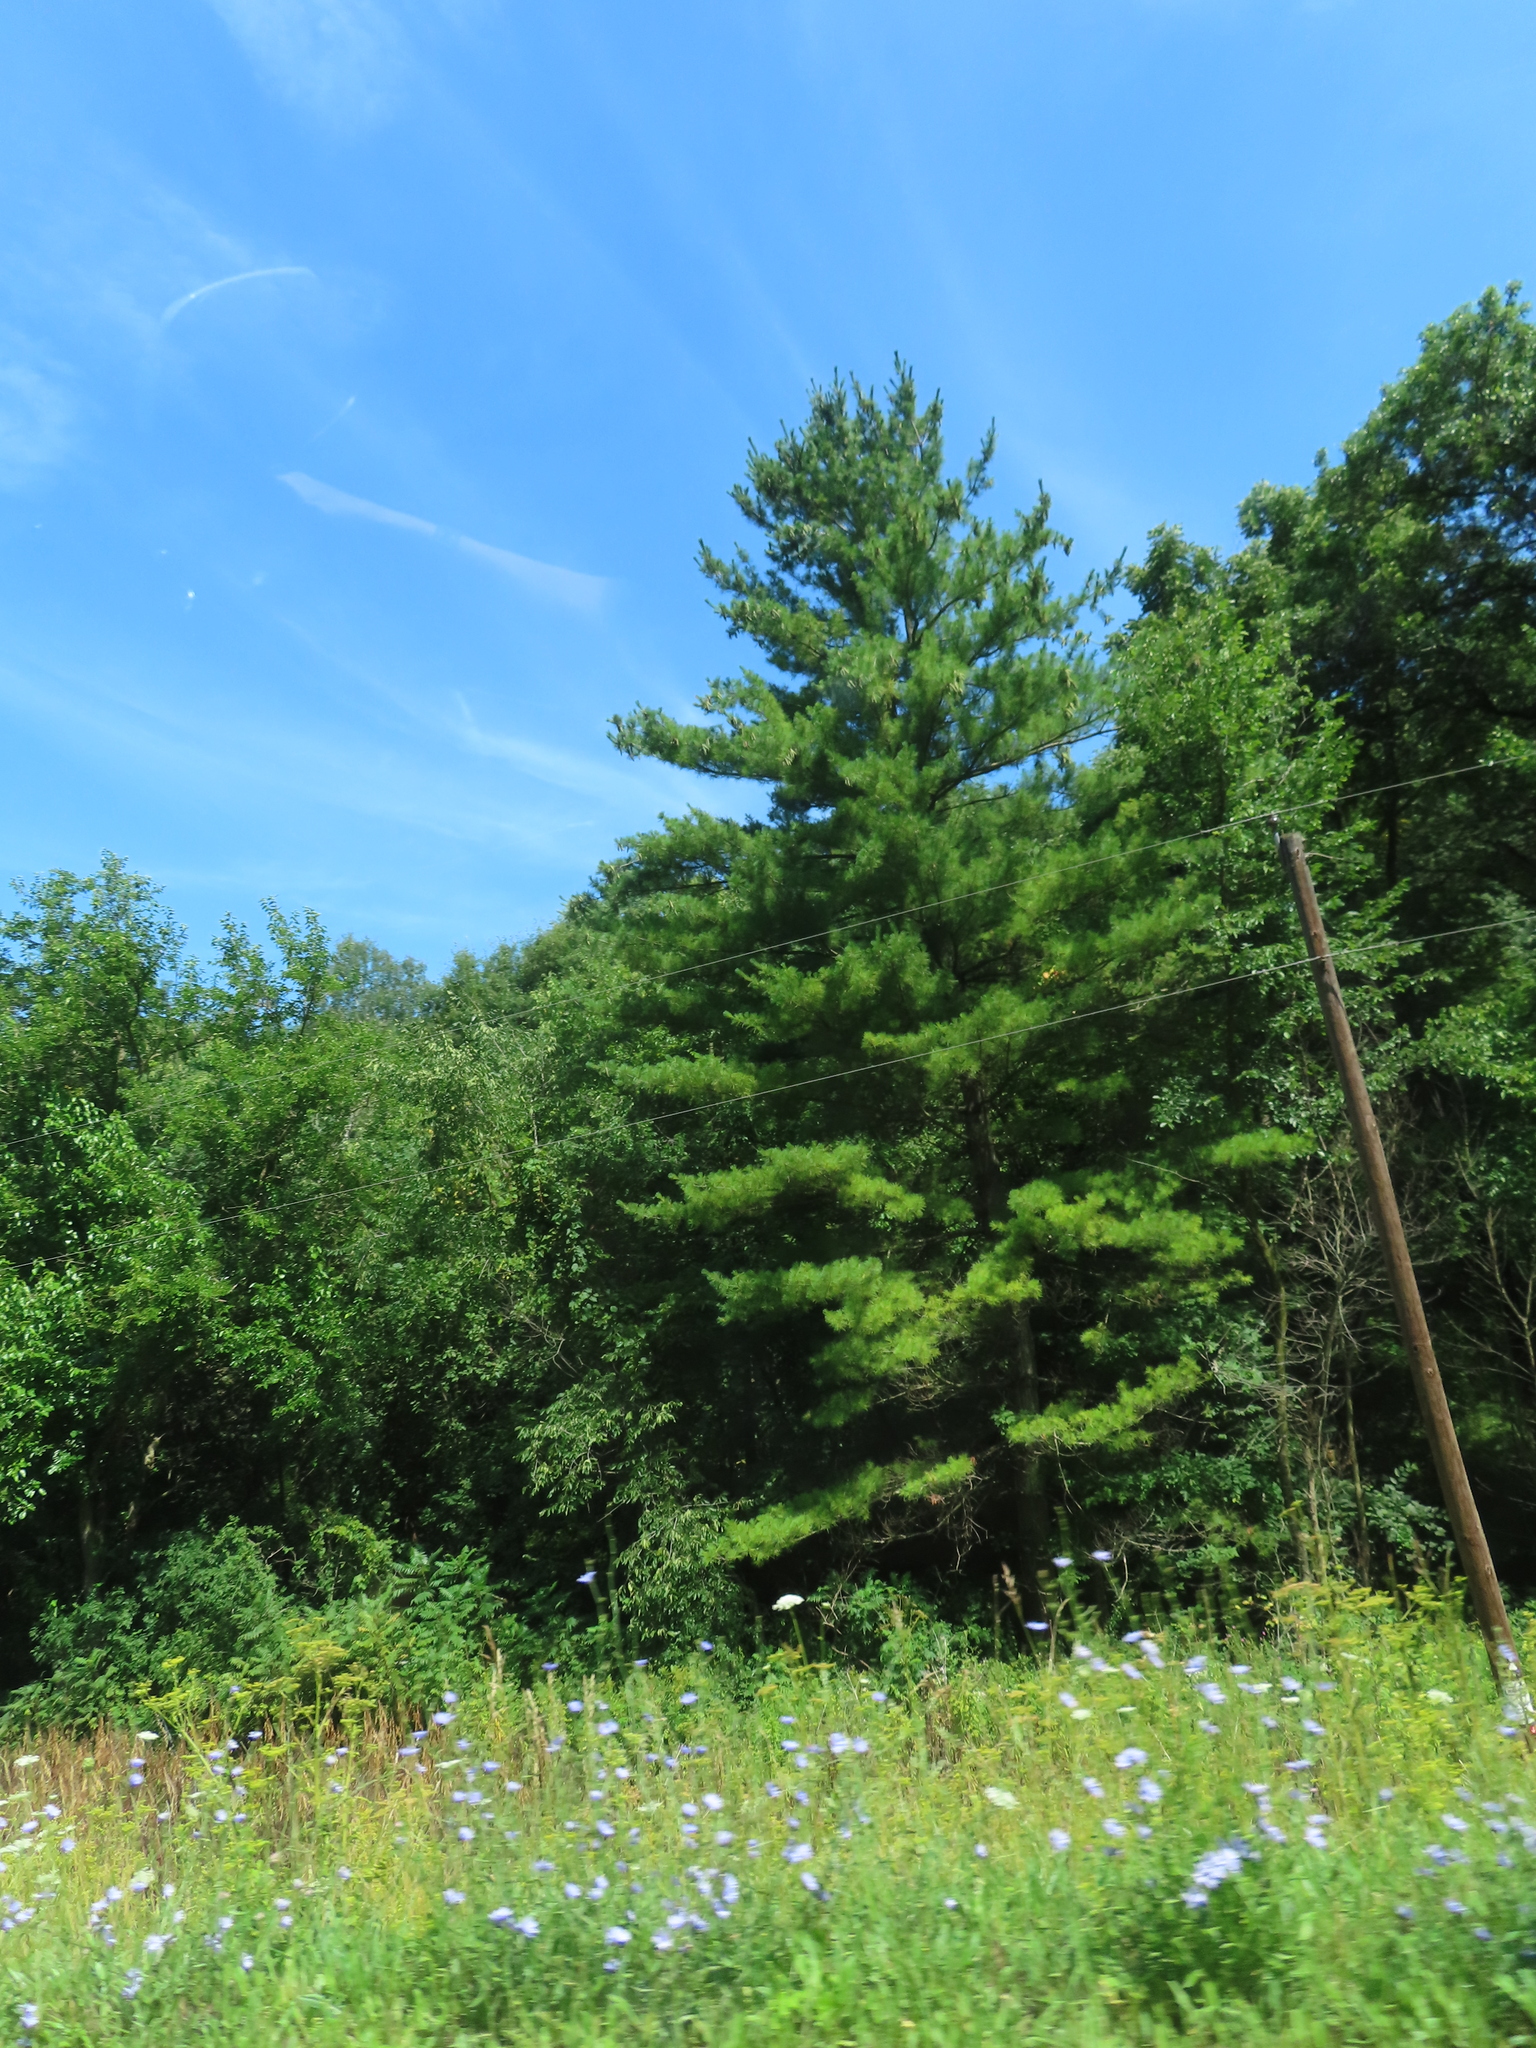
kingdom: Plantae
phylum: Tracheophyta
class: Pinopsida
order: Pinales
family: Pinaceae
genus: Pinus
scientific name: Pinus strobus
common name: Weymouth pine
